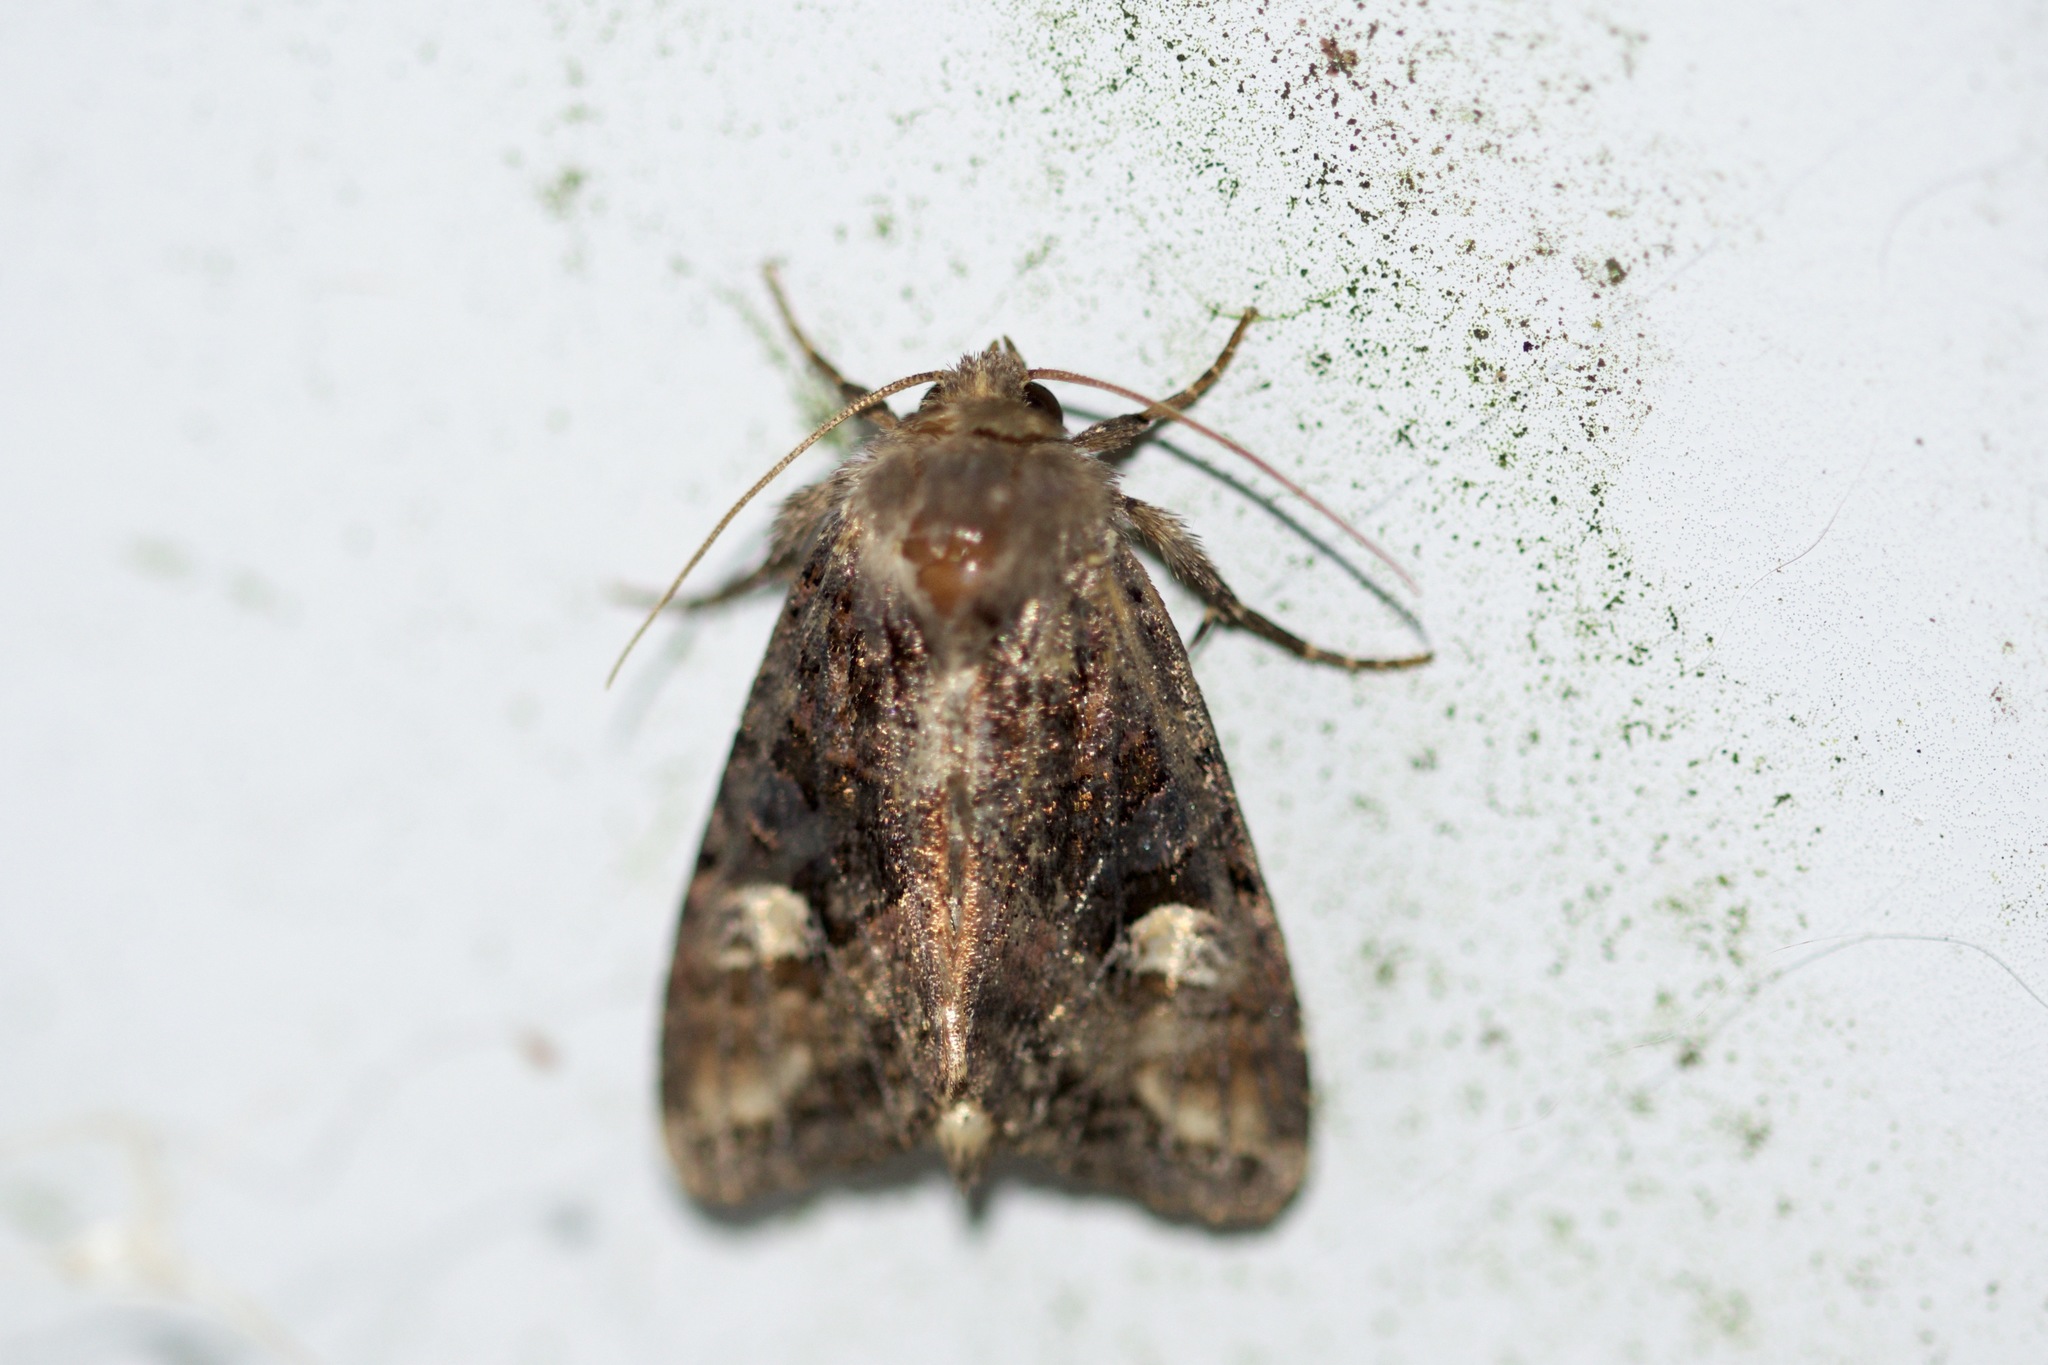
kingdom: Animalia
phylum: Arthropoda
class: Insecta
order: Lepidoptera
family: Noctuidae
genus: Euplexia
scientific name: Euplexia benesimilis
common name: American angle shades
